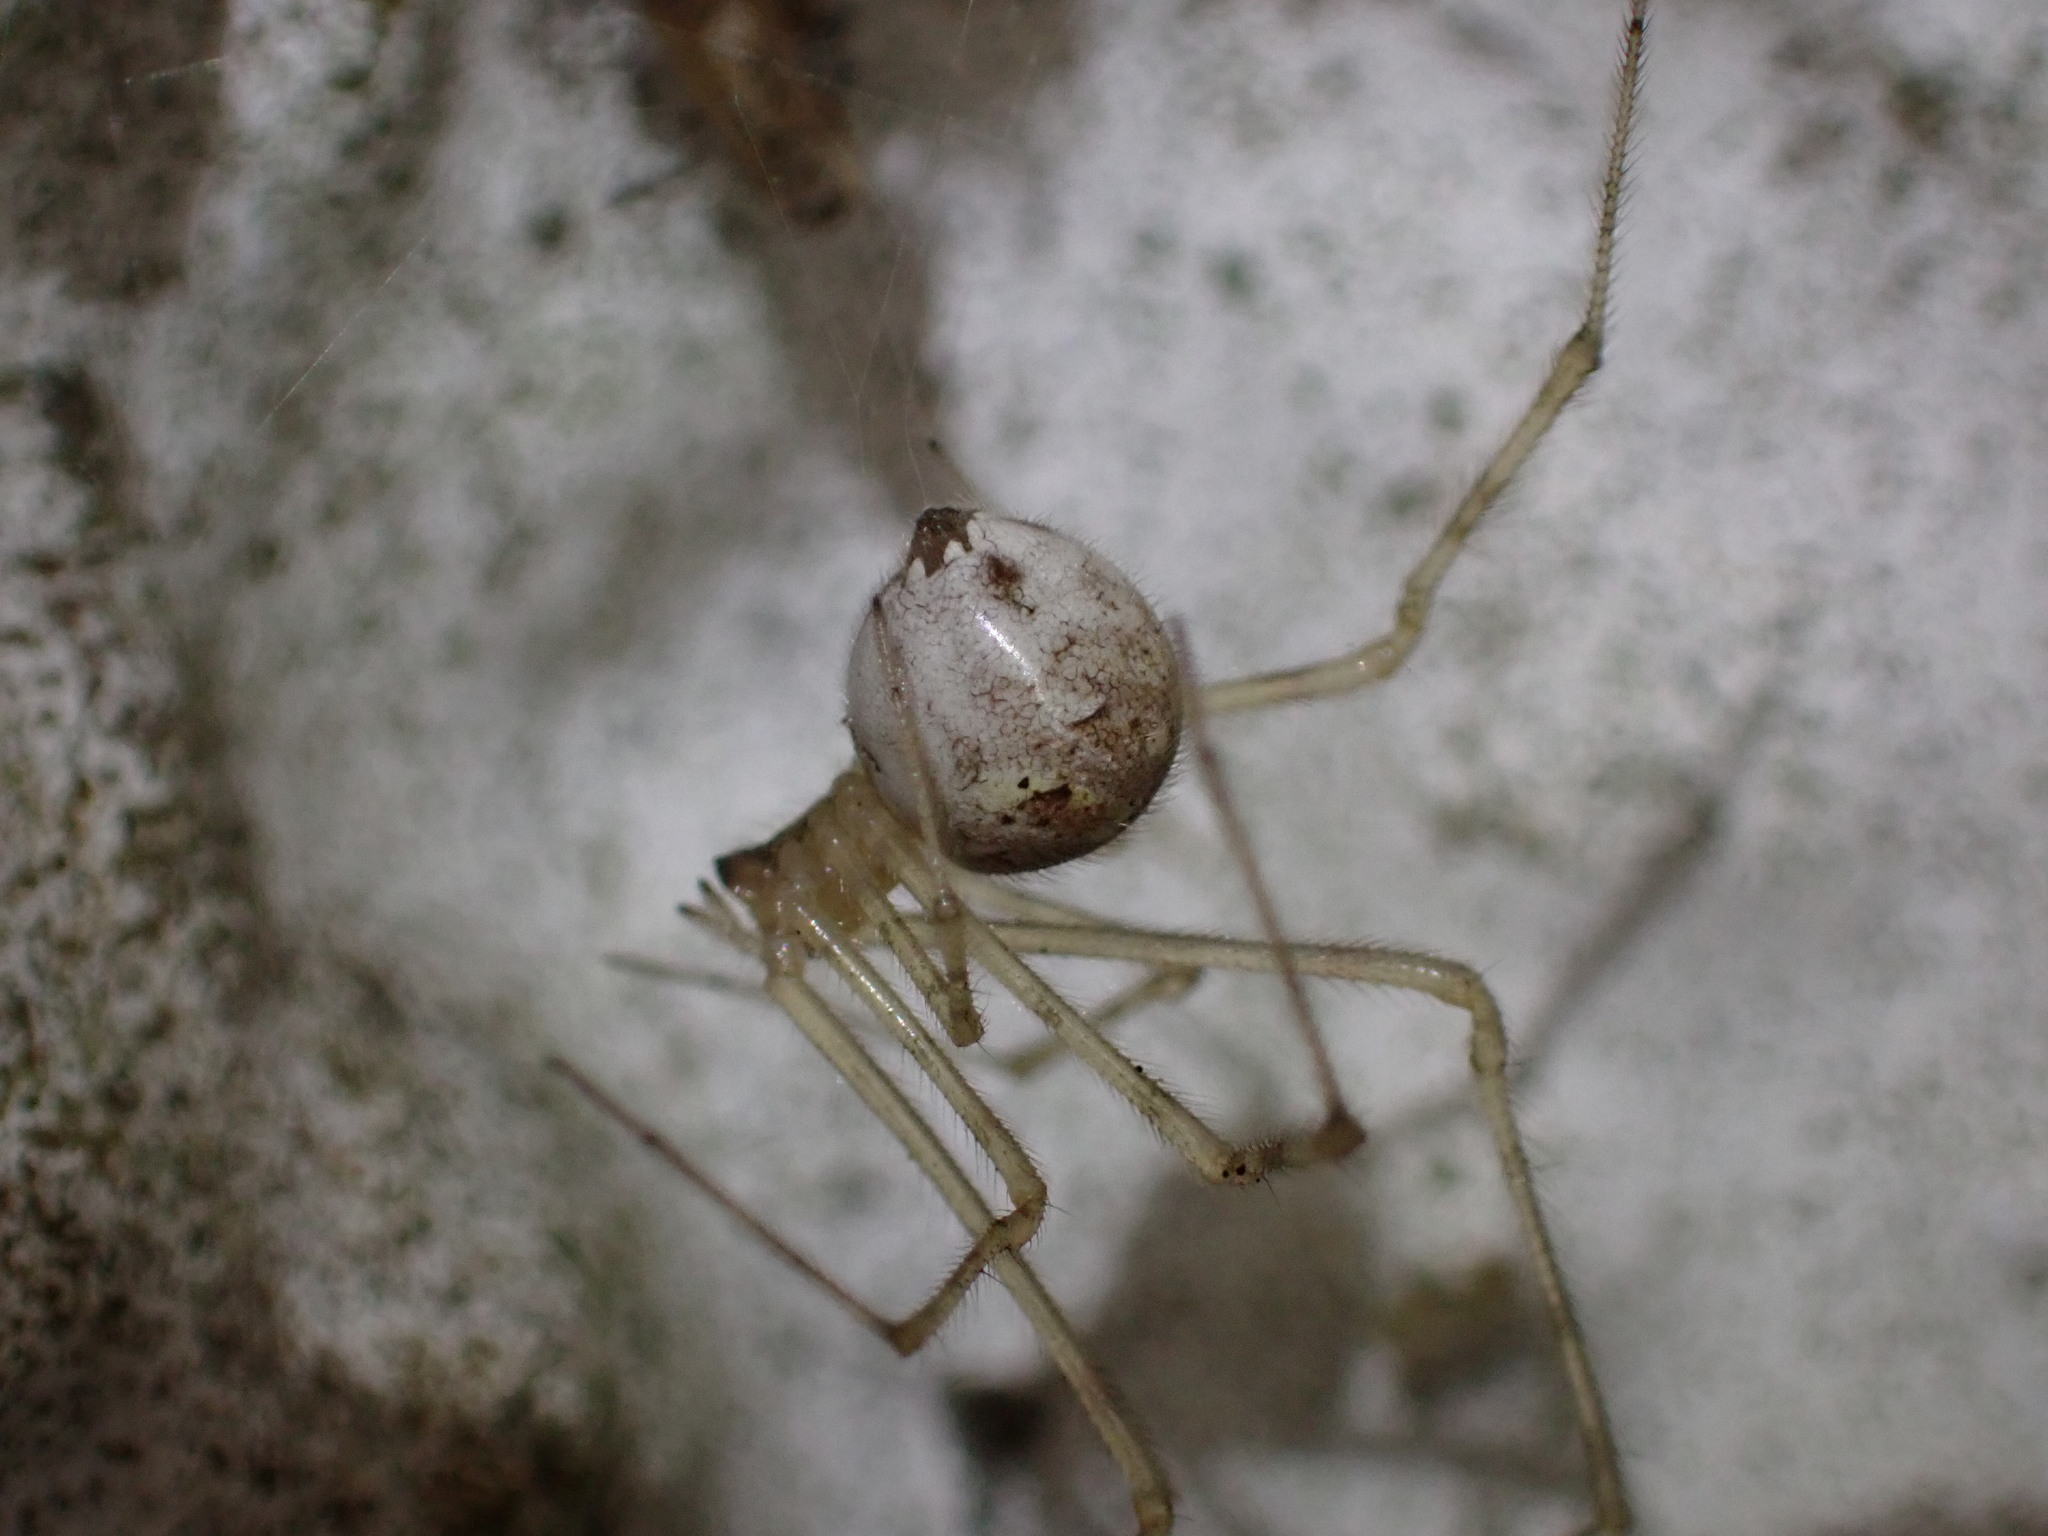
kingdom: Animalia
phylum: Arthropoda
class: Arachnida
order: Araneae
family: Theridiidae
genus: Cryptachaea
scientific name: Cryptachaea gigantipes
